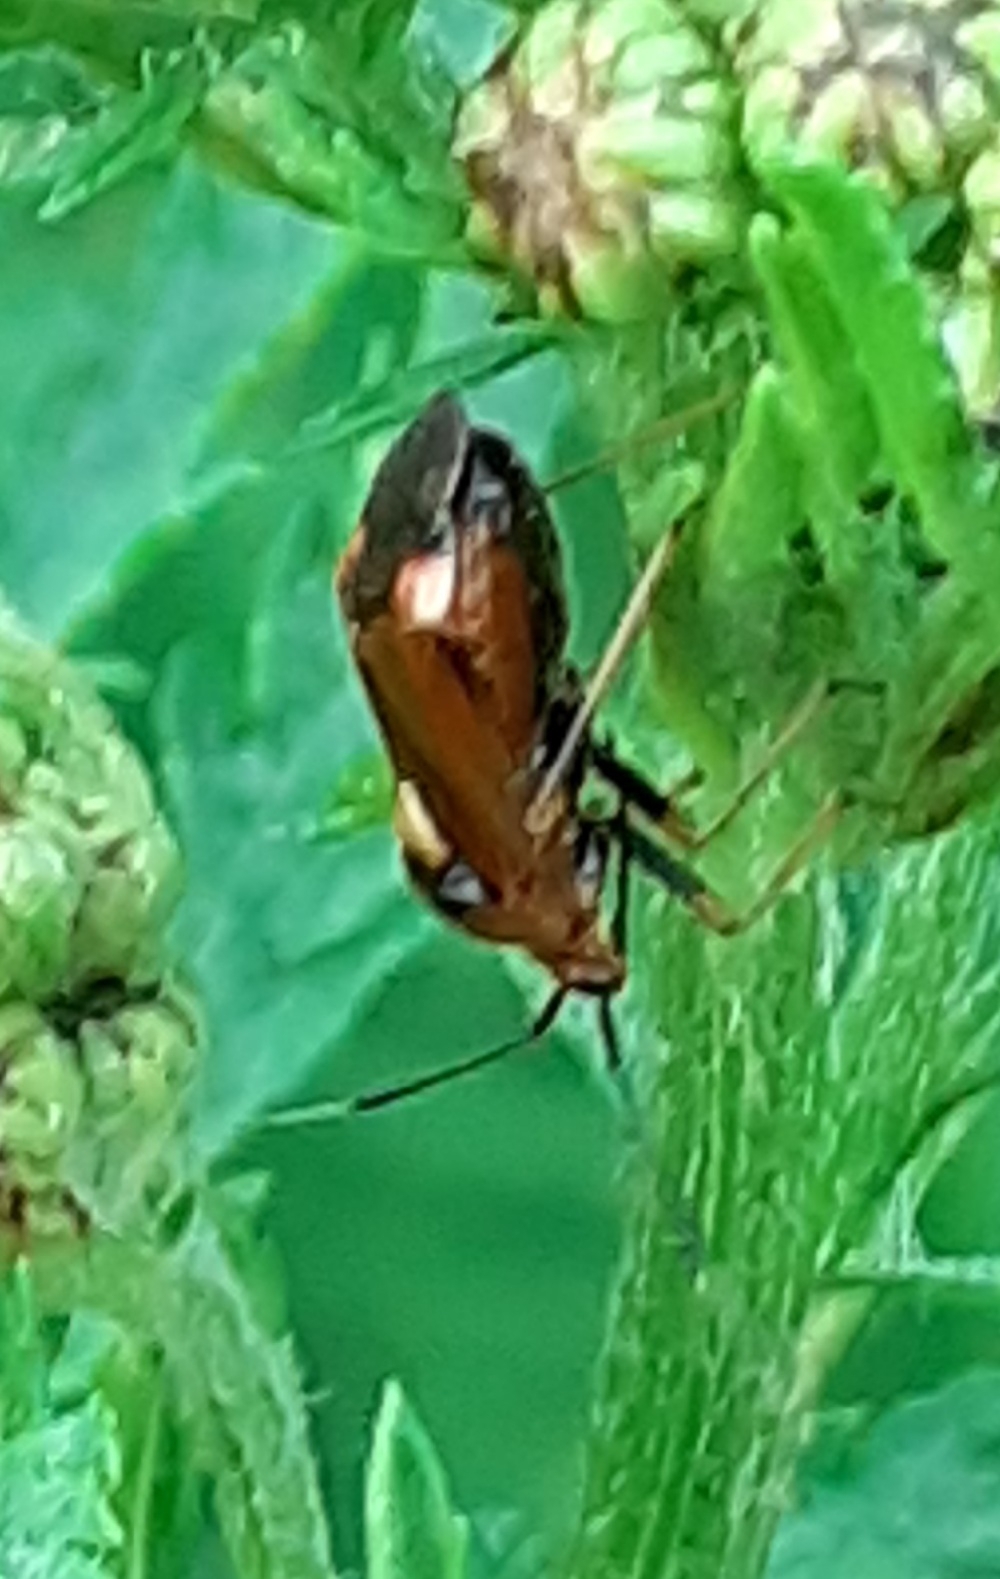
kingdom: Animalia
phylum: Arthropoda
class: Insecta
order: Hemiptera
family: Miridae
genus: Deraeocoris
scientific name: Deraeocoris ruber
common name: Plant bug
